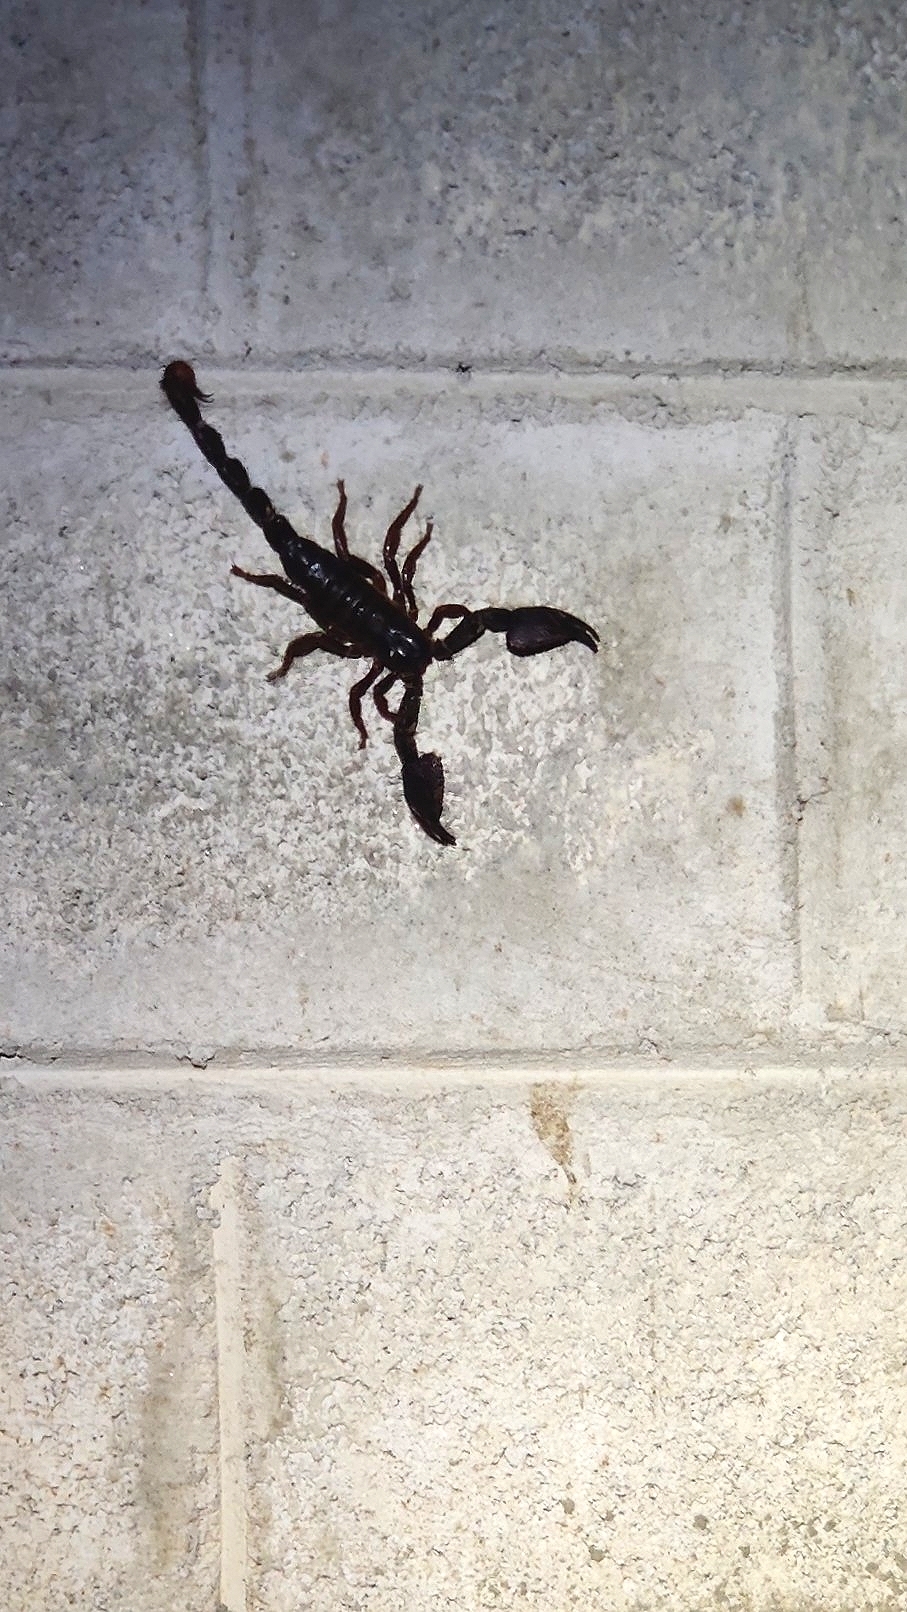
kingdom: Animalia
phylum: Arthropoda
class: Arachnida
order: Scorpiones
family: Scorpionidae
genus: Gigantometrus
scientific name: Gigantometrus swammerdami
